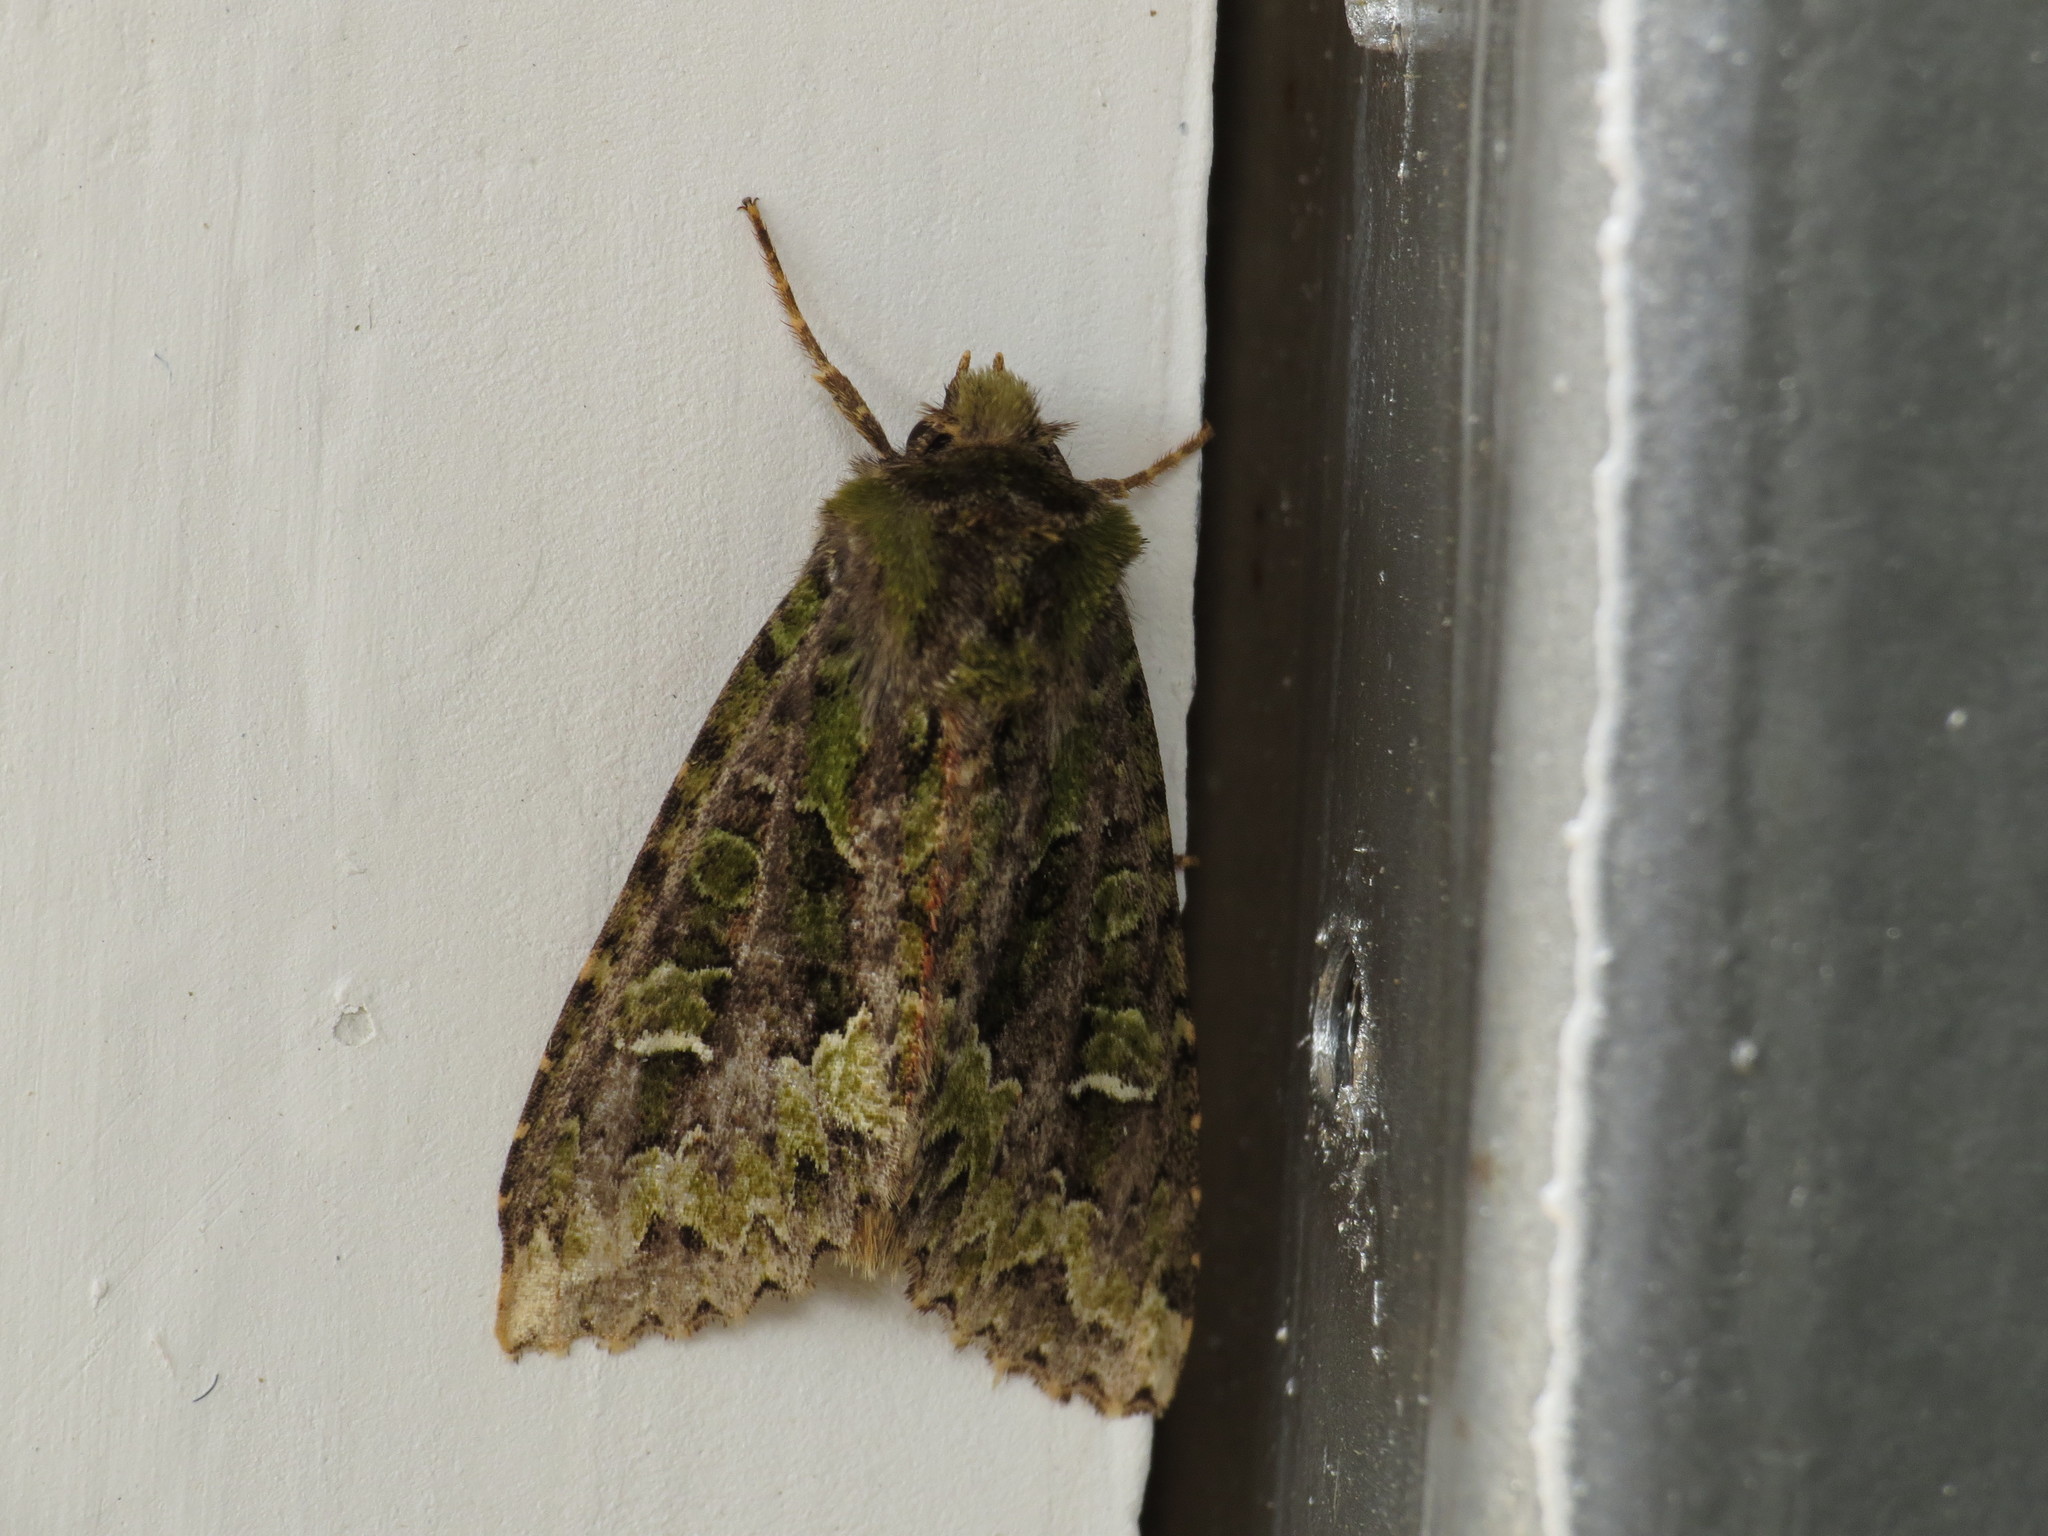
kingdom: Animalia
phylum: Arthropoda
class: Insecta
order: Lepidoptera
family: Noctuidae
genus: Antivaleria
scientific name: Antivaleria viridimacula
